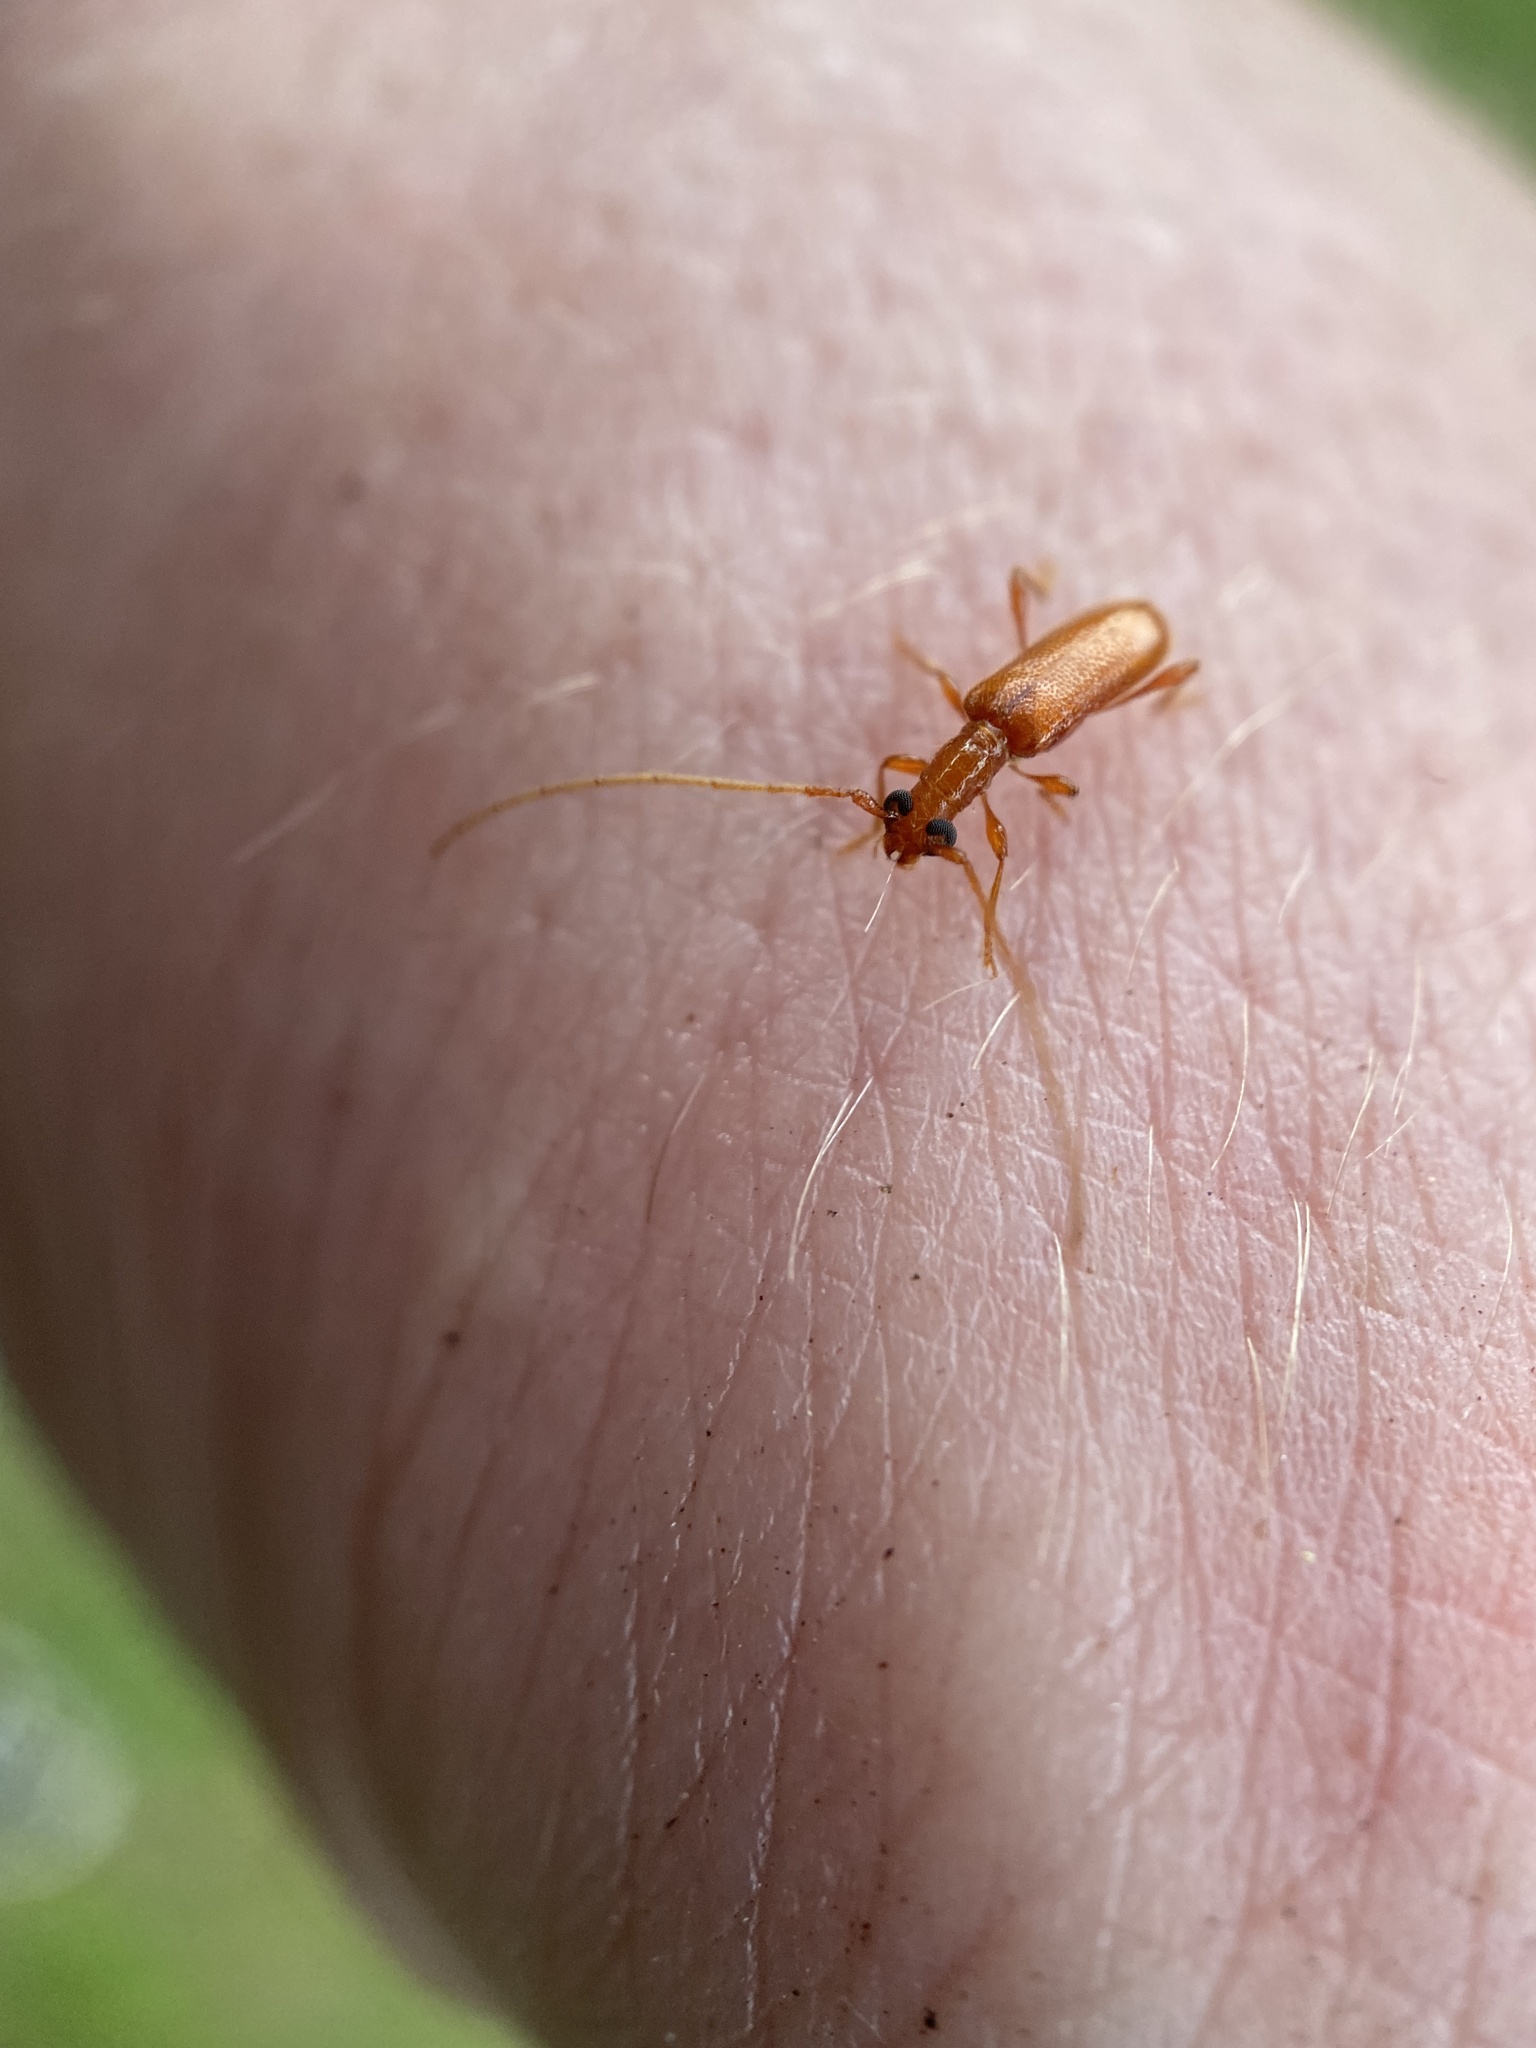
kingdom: Animalia
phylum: Arthropoda
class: Insecta
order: Coleoptera
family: Cerambycidae
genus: Obrium
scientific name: Obrium rufulum
